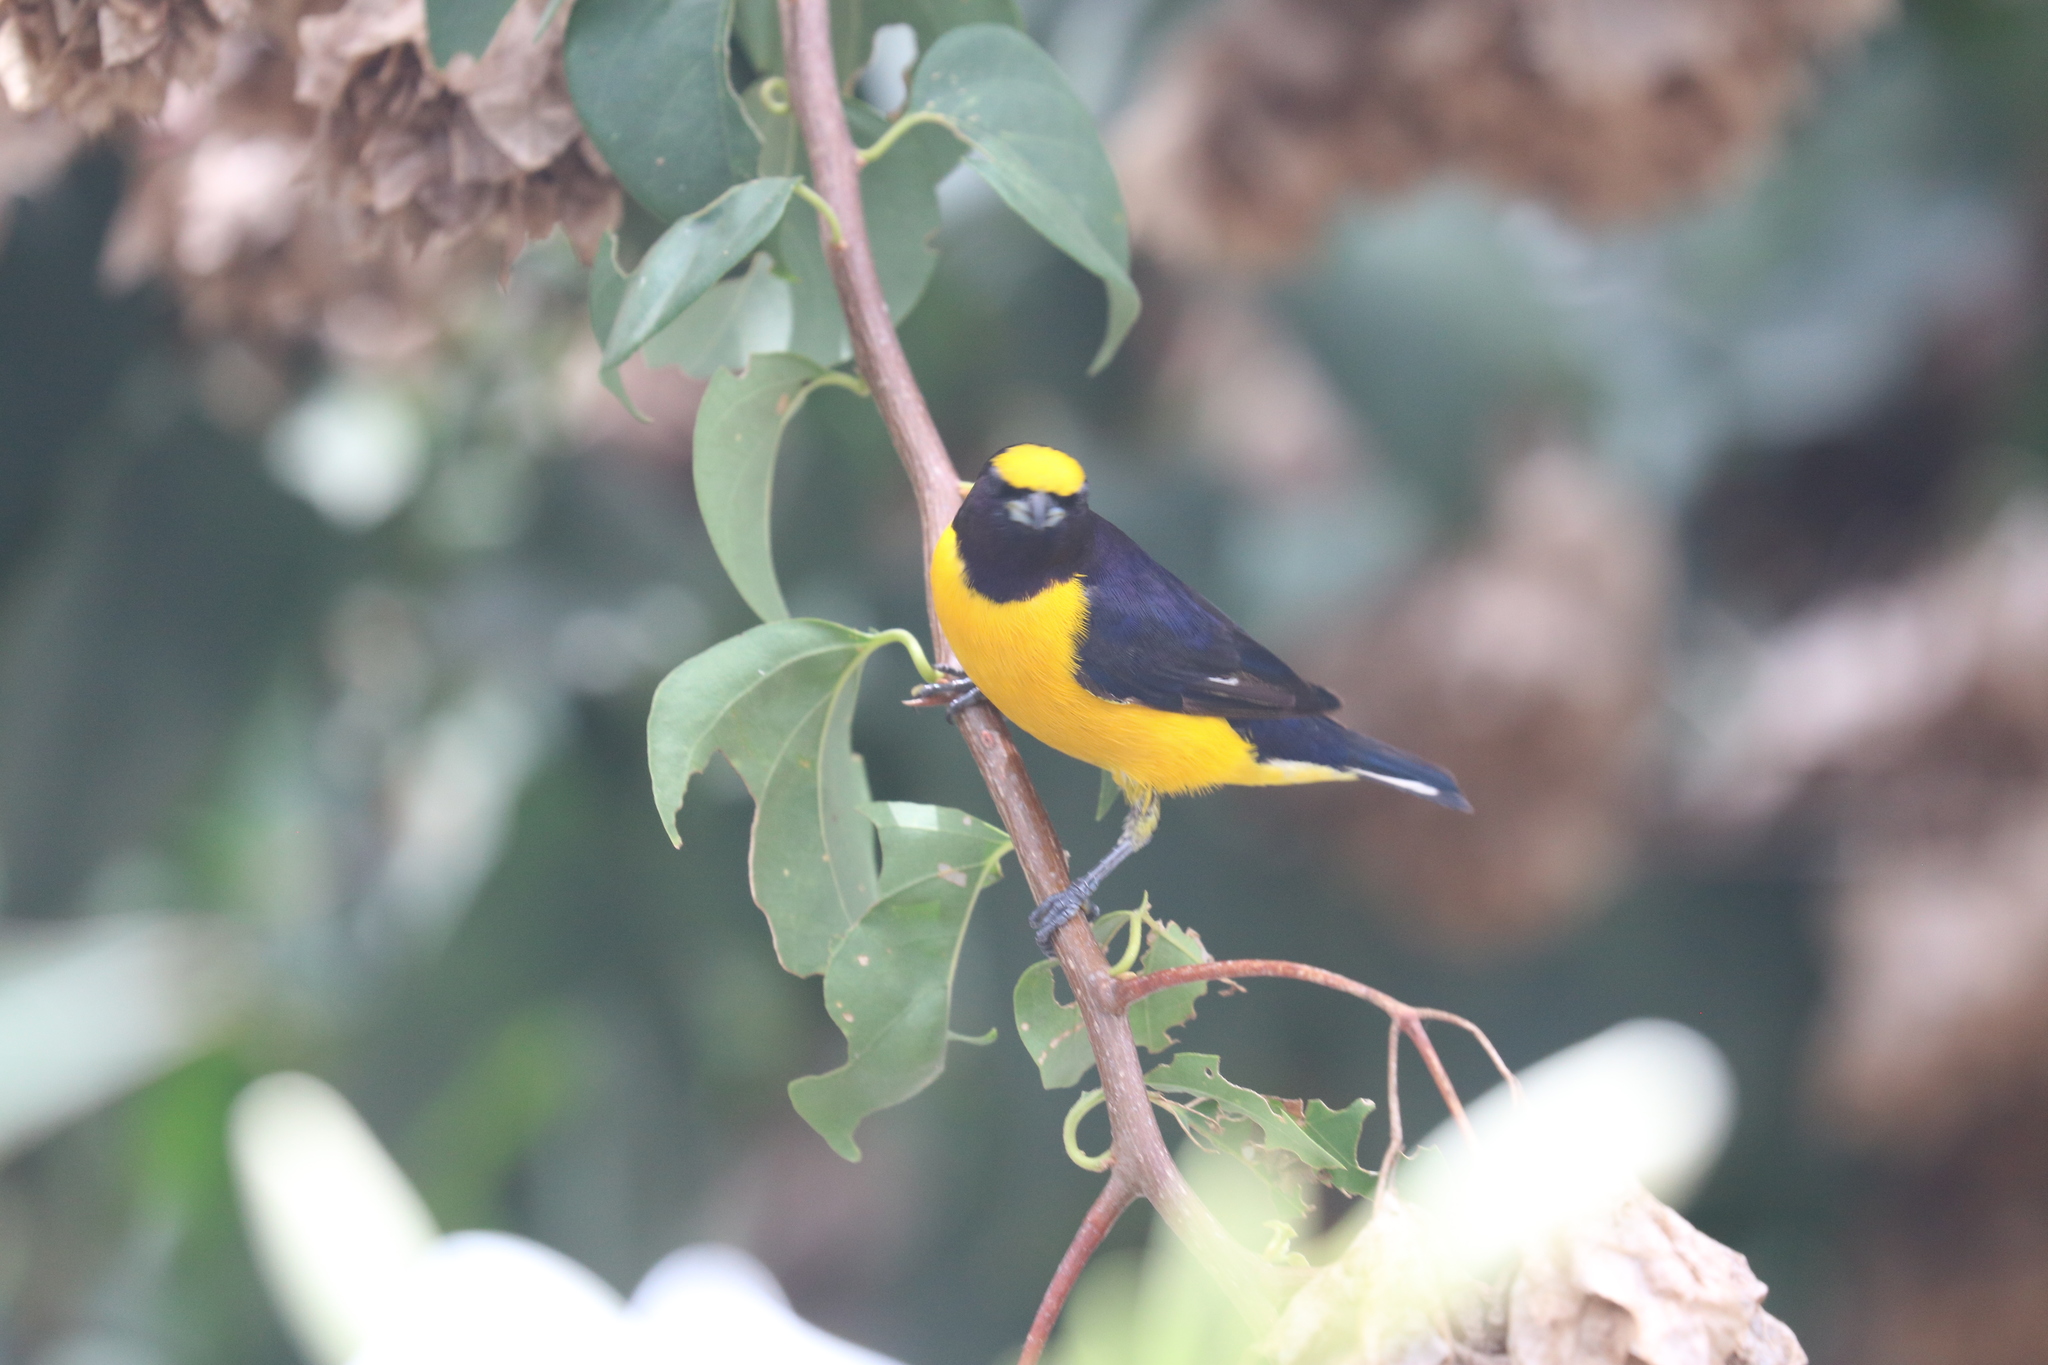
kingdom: Animalia
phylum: Chordata
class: Aves
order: Passeriformes
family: Fringillidae
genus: Euphonia
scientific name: Euphonia chlorotica
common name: Purple-throated euphonia
